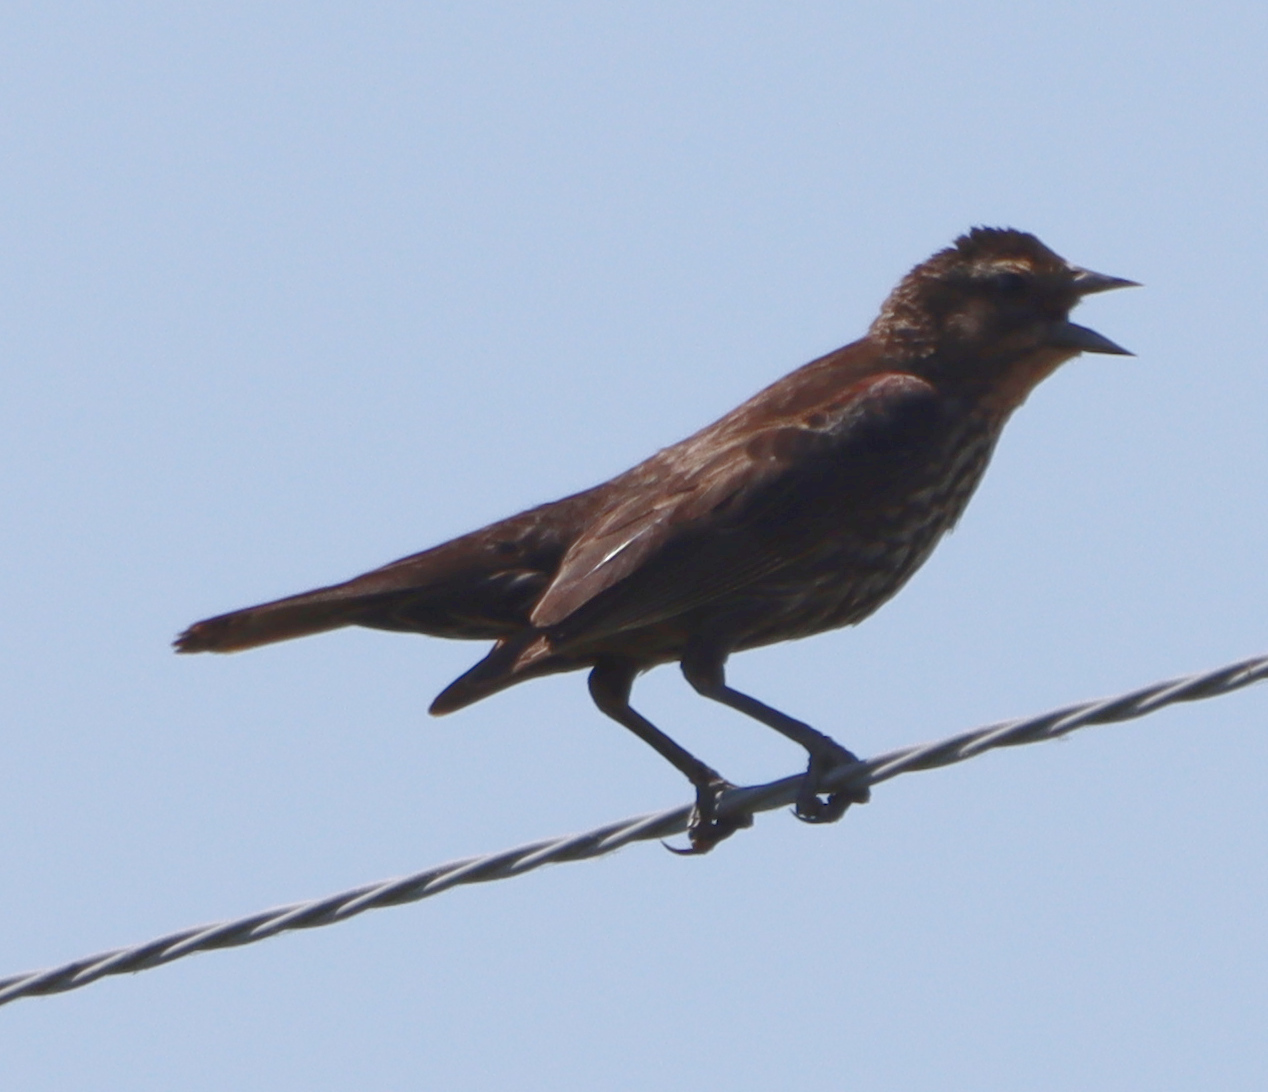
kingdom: Animalia
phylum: Chordata
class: Aves
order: Passeriformes
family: Icteridae
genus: Agelaius
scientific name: Agelaius phoeniceus
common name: Red-winged blackbird
